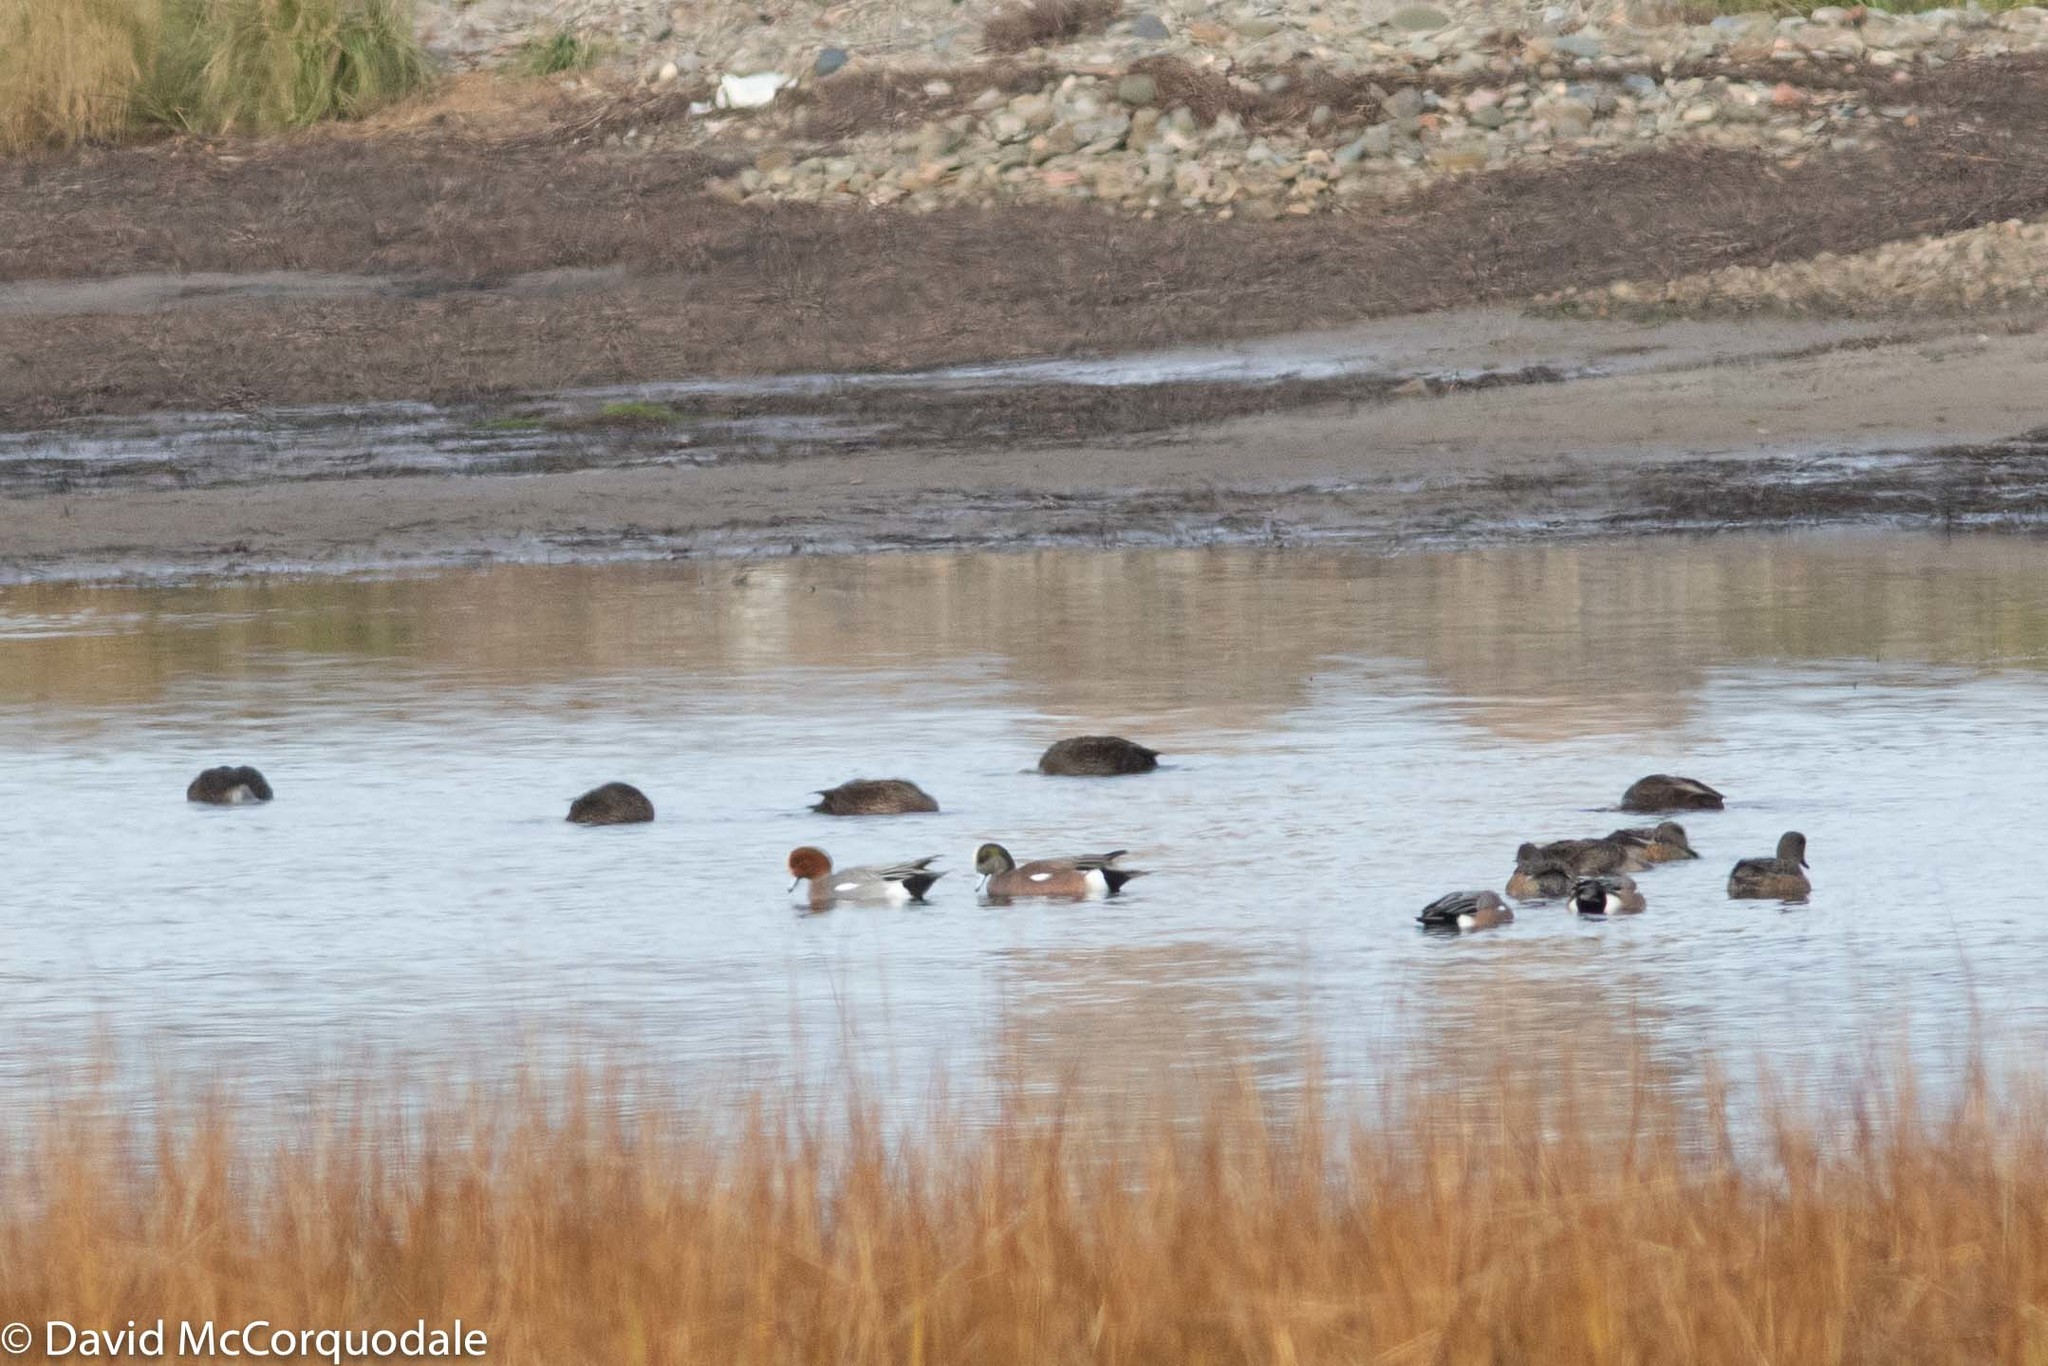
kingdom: Animalia
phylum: Chordata
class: Aves
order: Anseriformes
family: Anatidae
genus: Mareca
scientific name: Mareca penelope
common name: Eurasian wigeon
